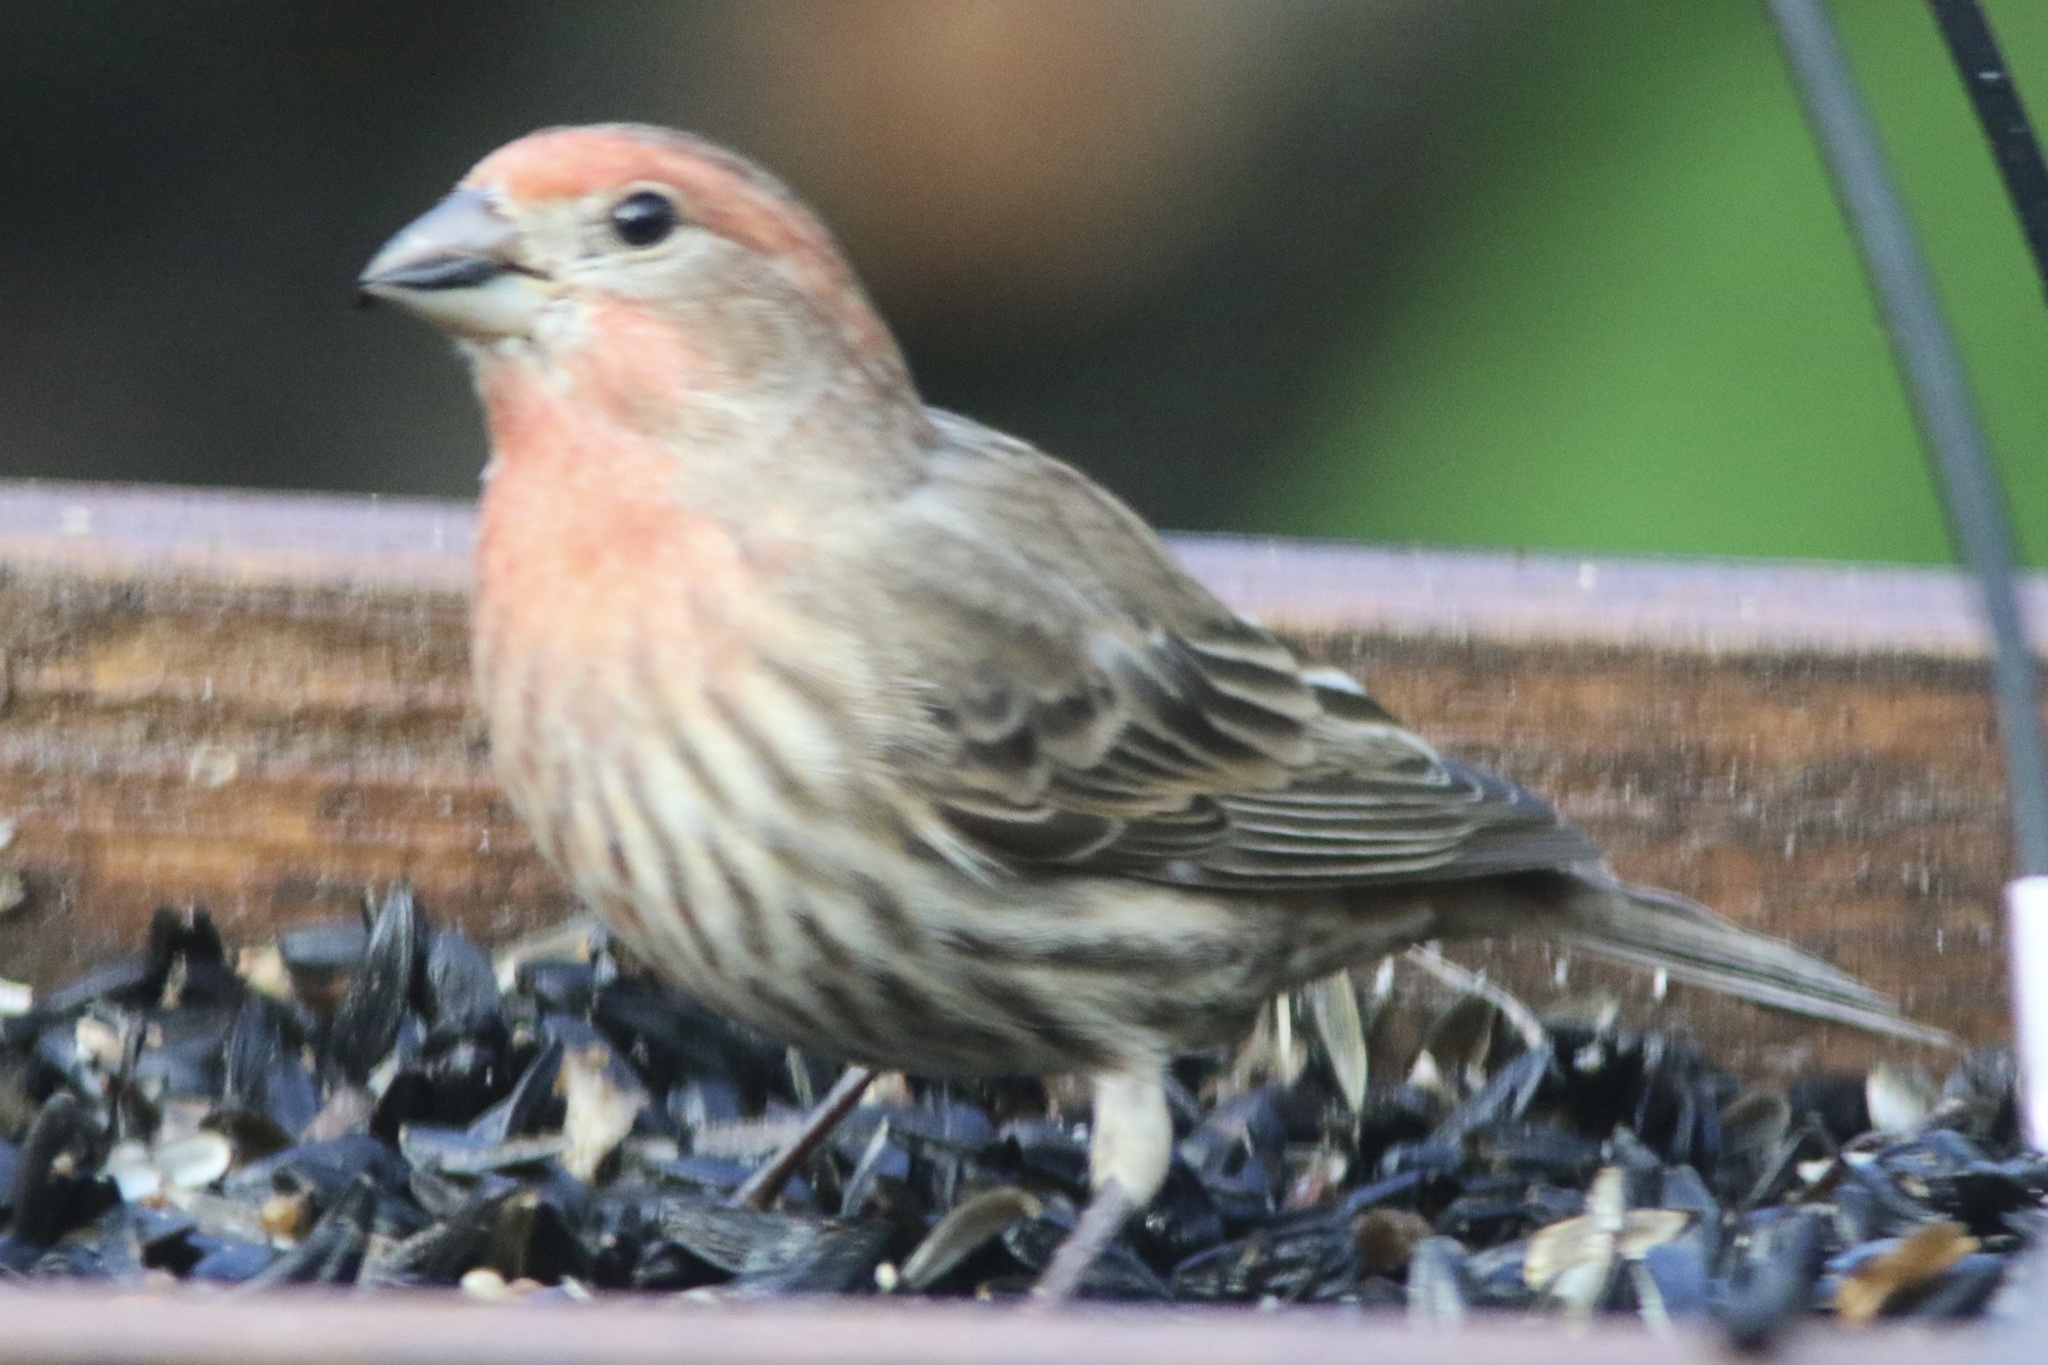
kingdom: Animalia
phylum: Chordata
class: Aves
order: Passeriformes
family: Fringillidae
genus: Haemorhous
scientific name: Haemorhous mexicanus
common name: House finch
